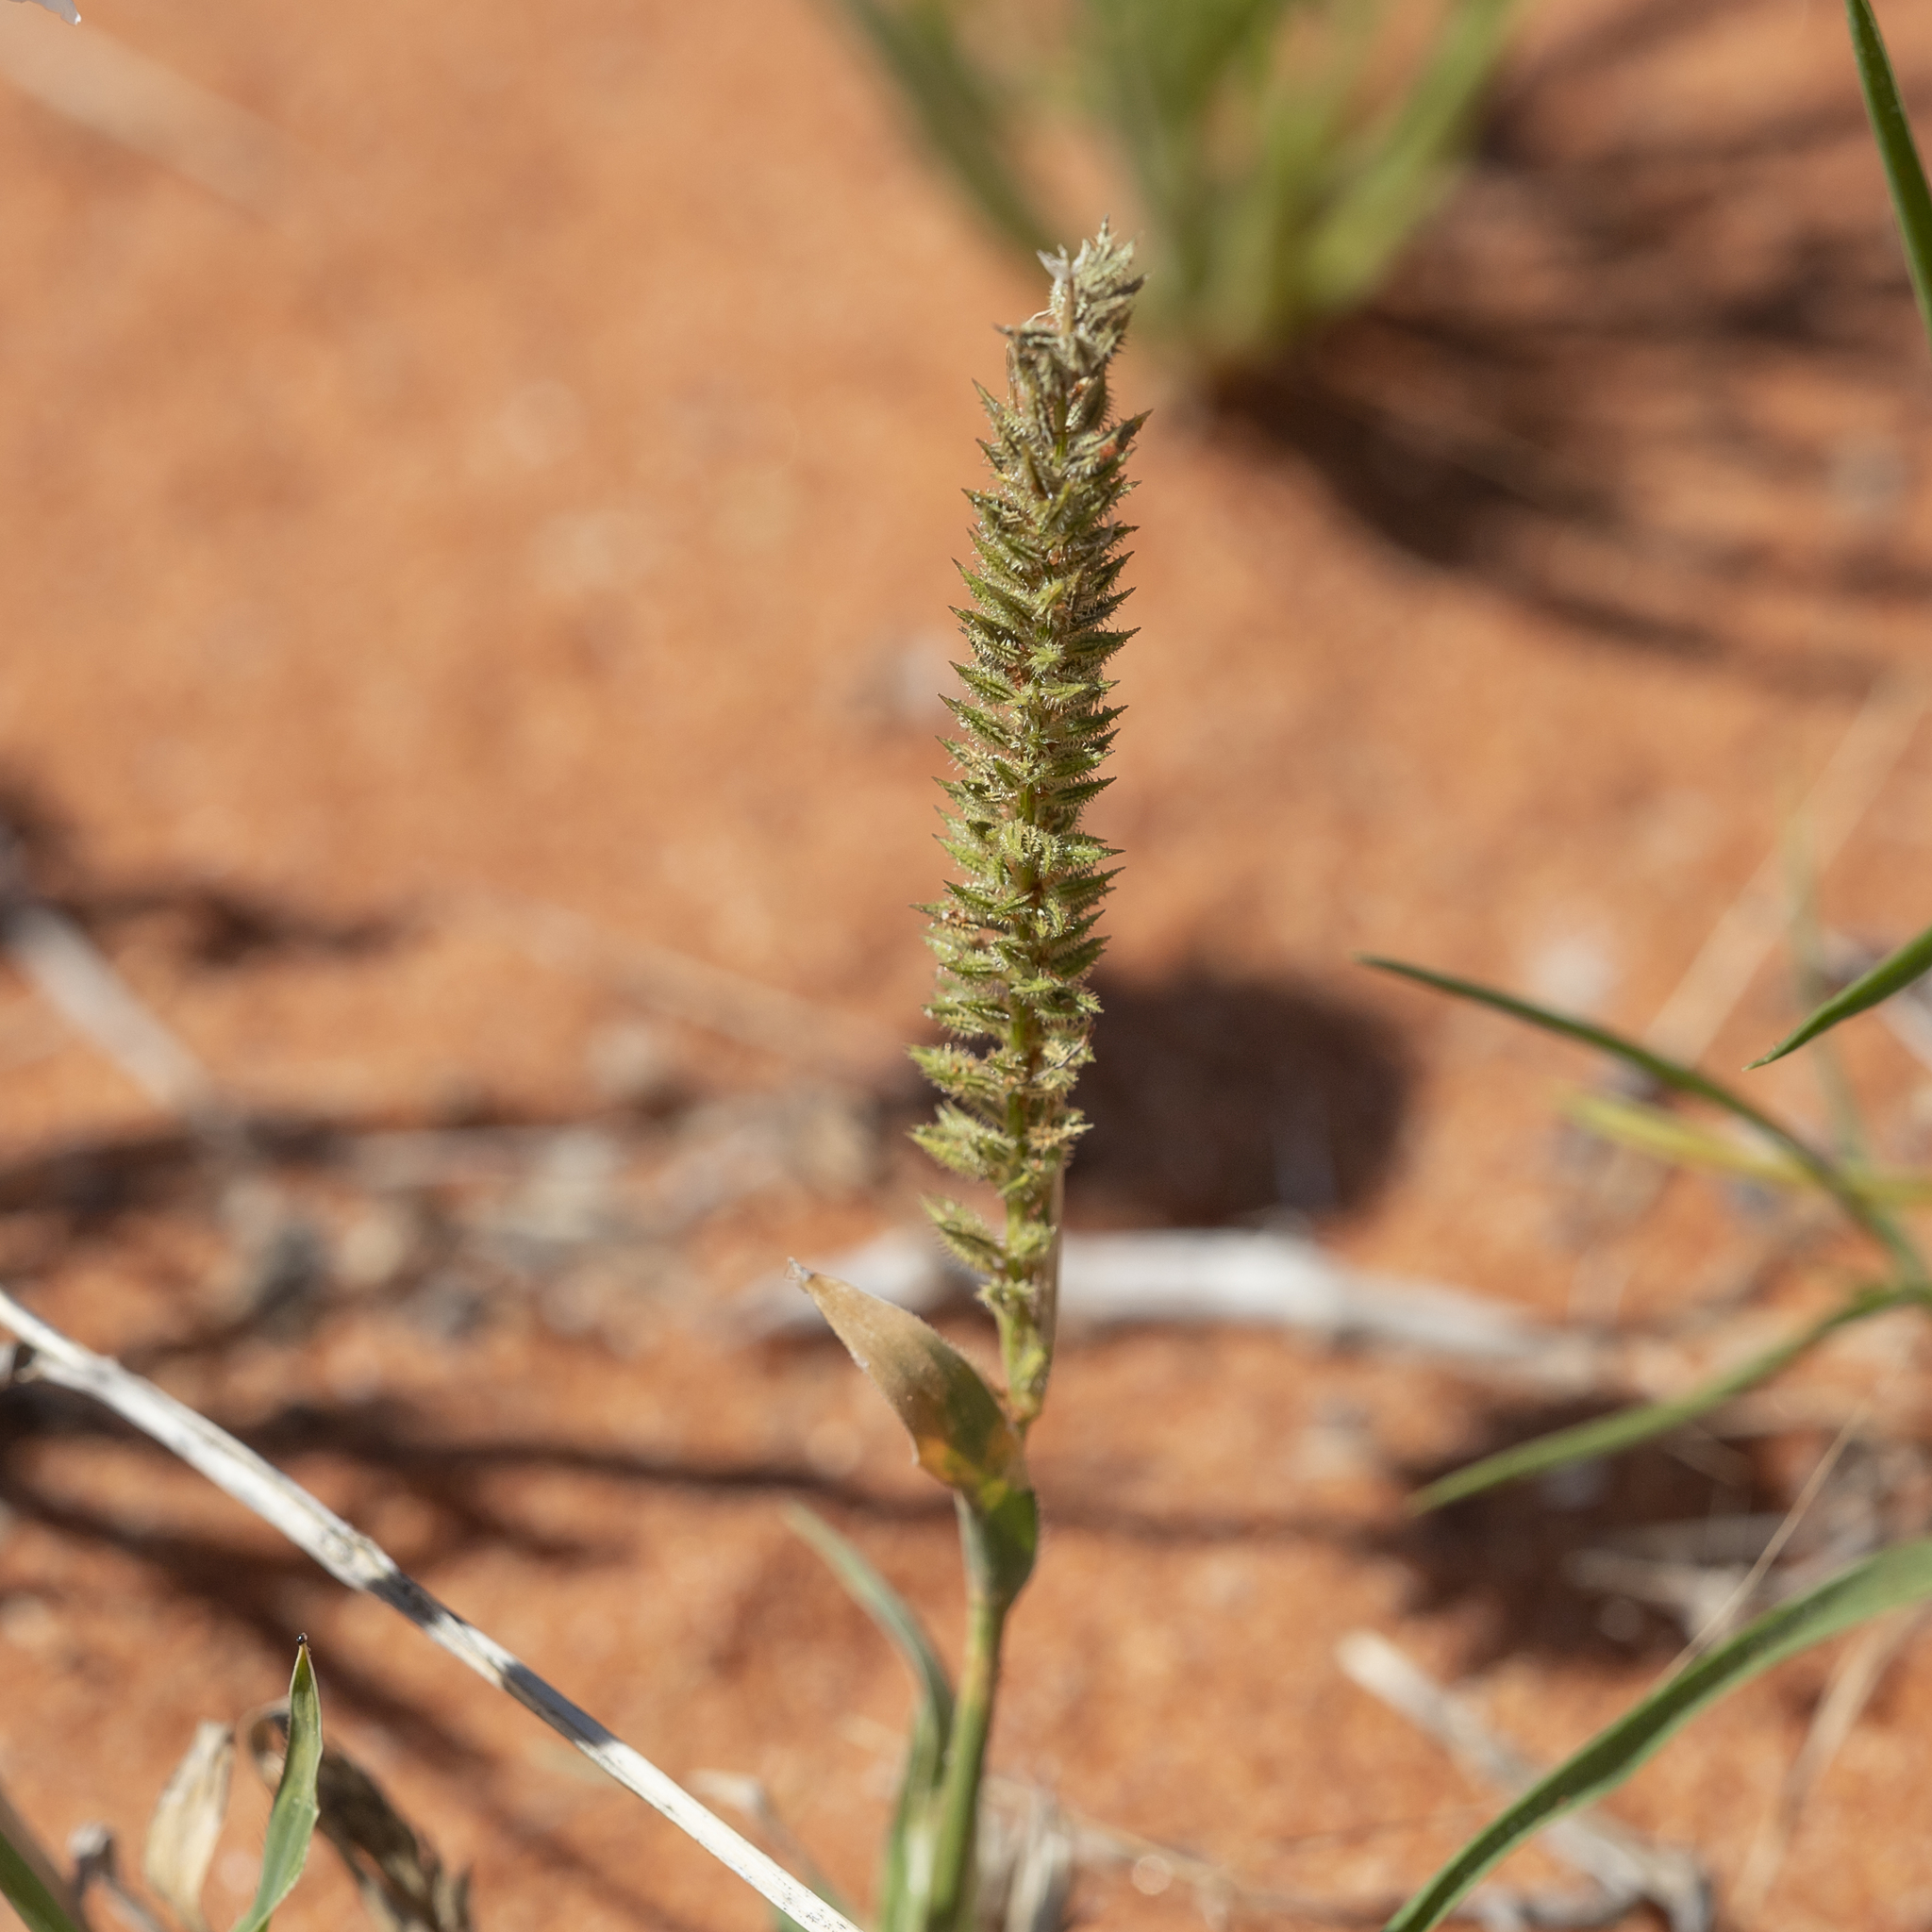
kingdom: Plantae
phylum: Tracheophyta
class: Liliopsida
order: Poales
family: Poaceae
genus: Tragus
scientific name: Tragus australianus
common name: Australian bur-grass
